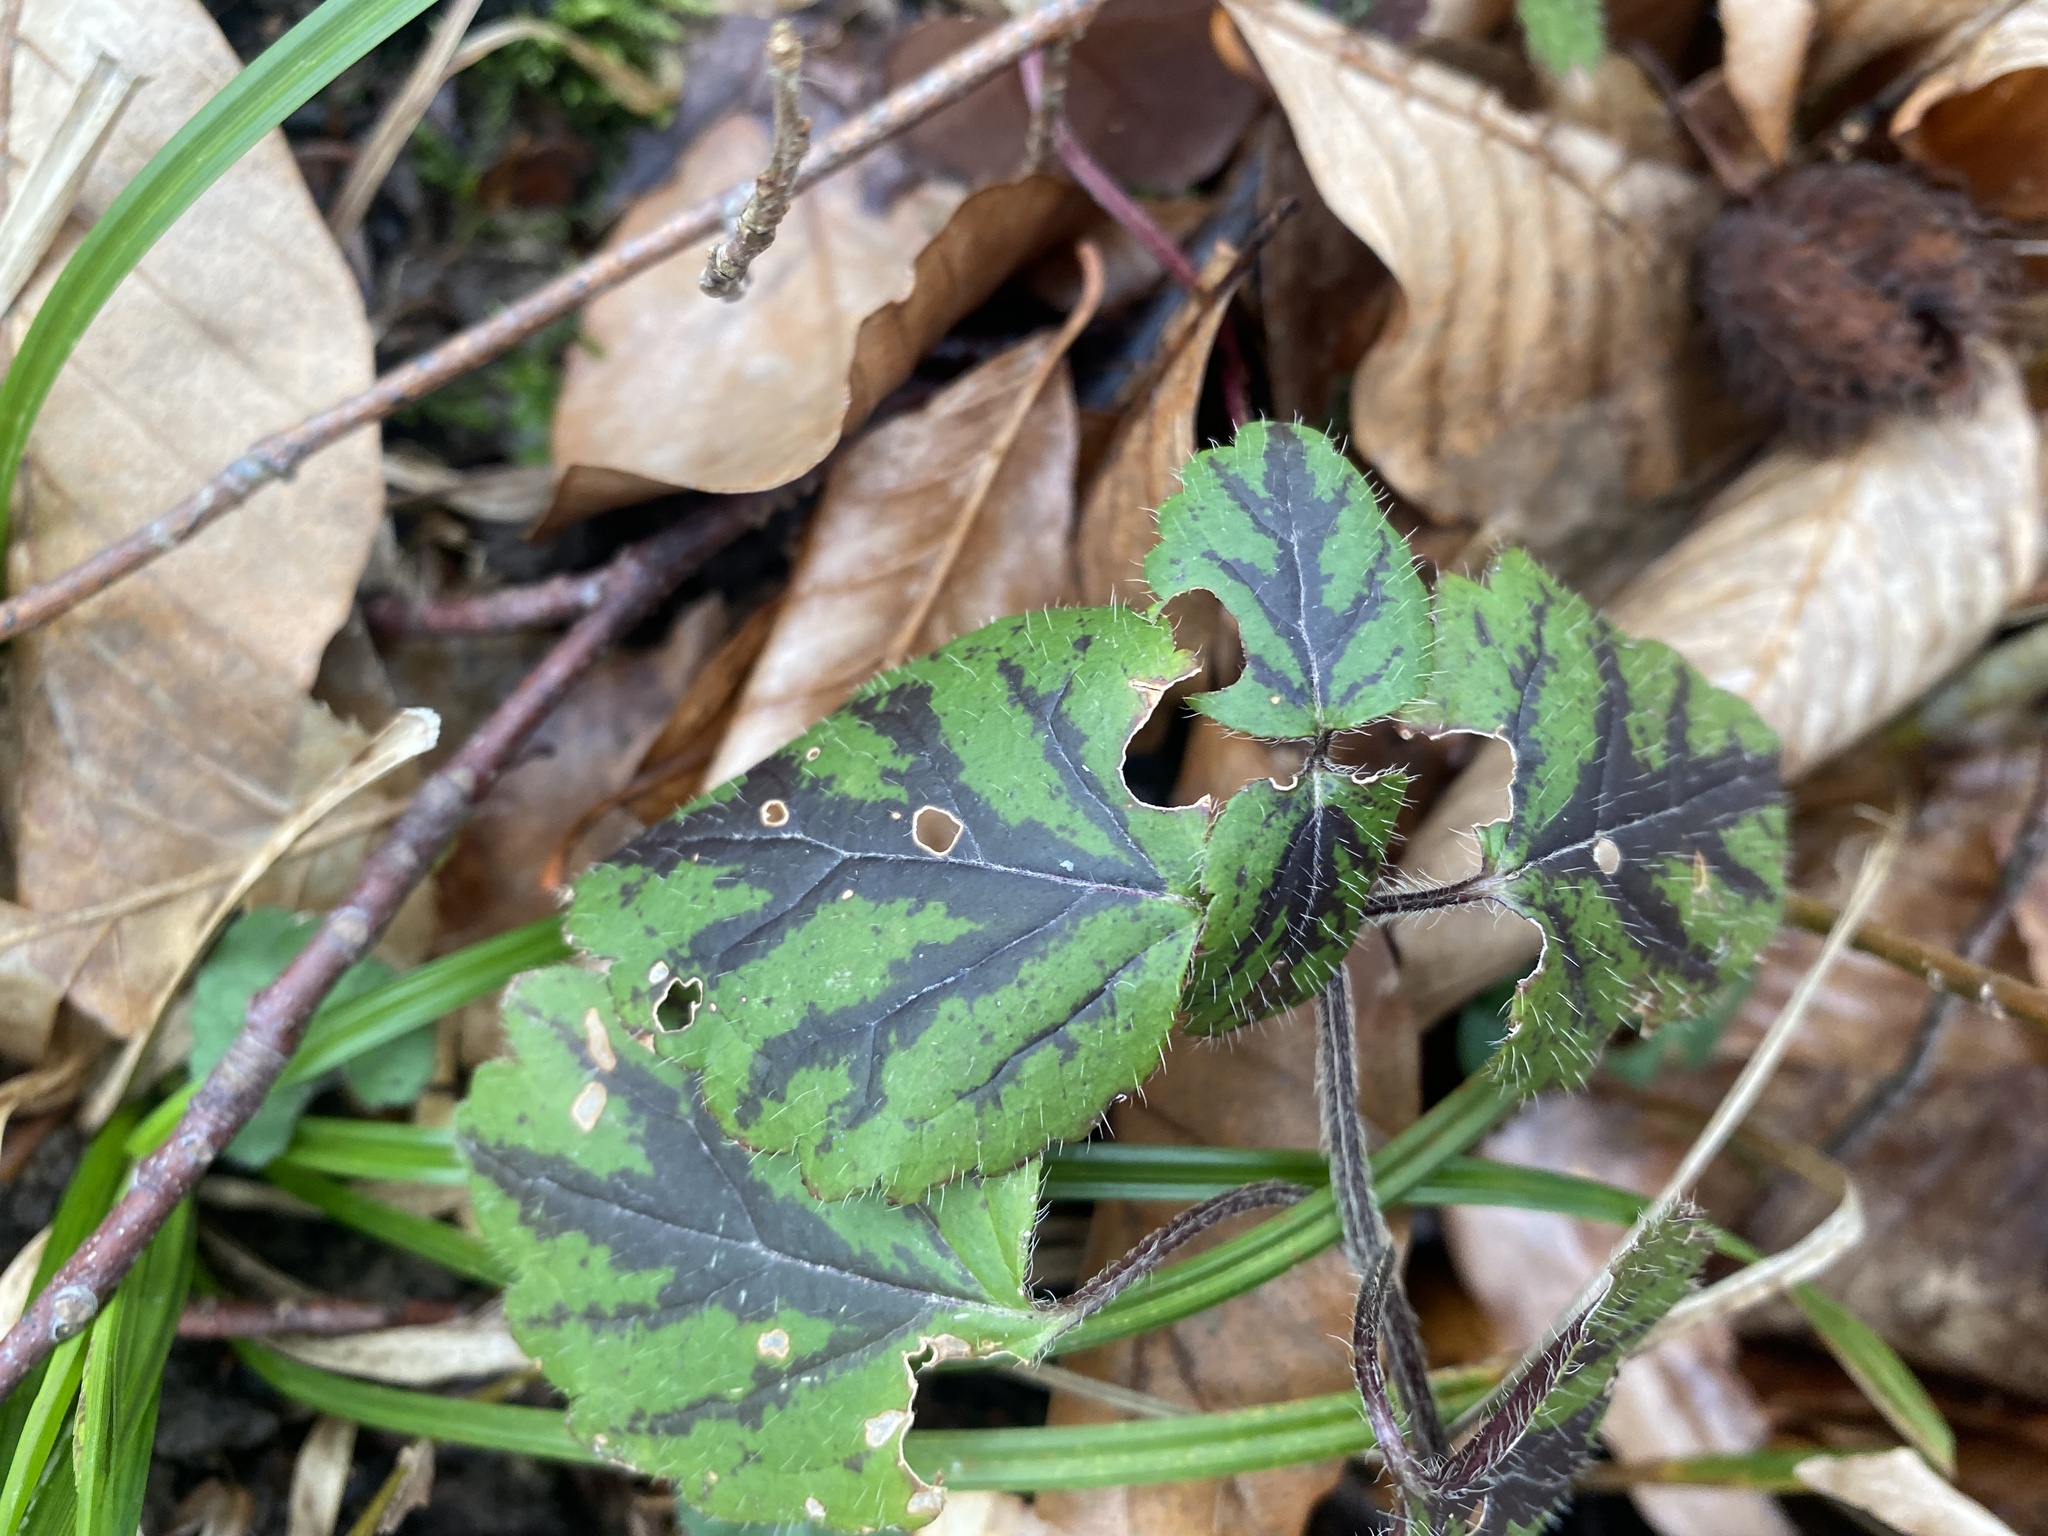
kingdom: Plantae
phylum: Tracheophyta
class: Magnoliopsida
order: Lamiales
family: Lamiaceae
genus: Lamium
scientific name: Lamium galeobdolon
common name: Yellow archangel
